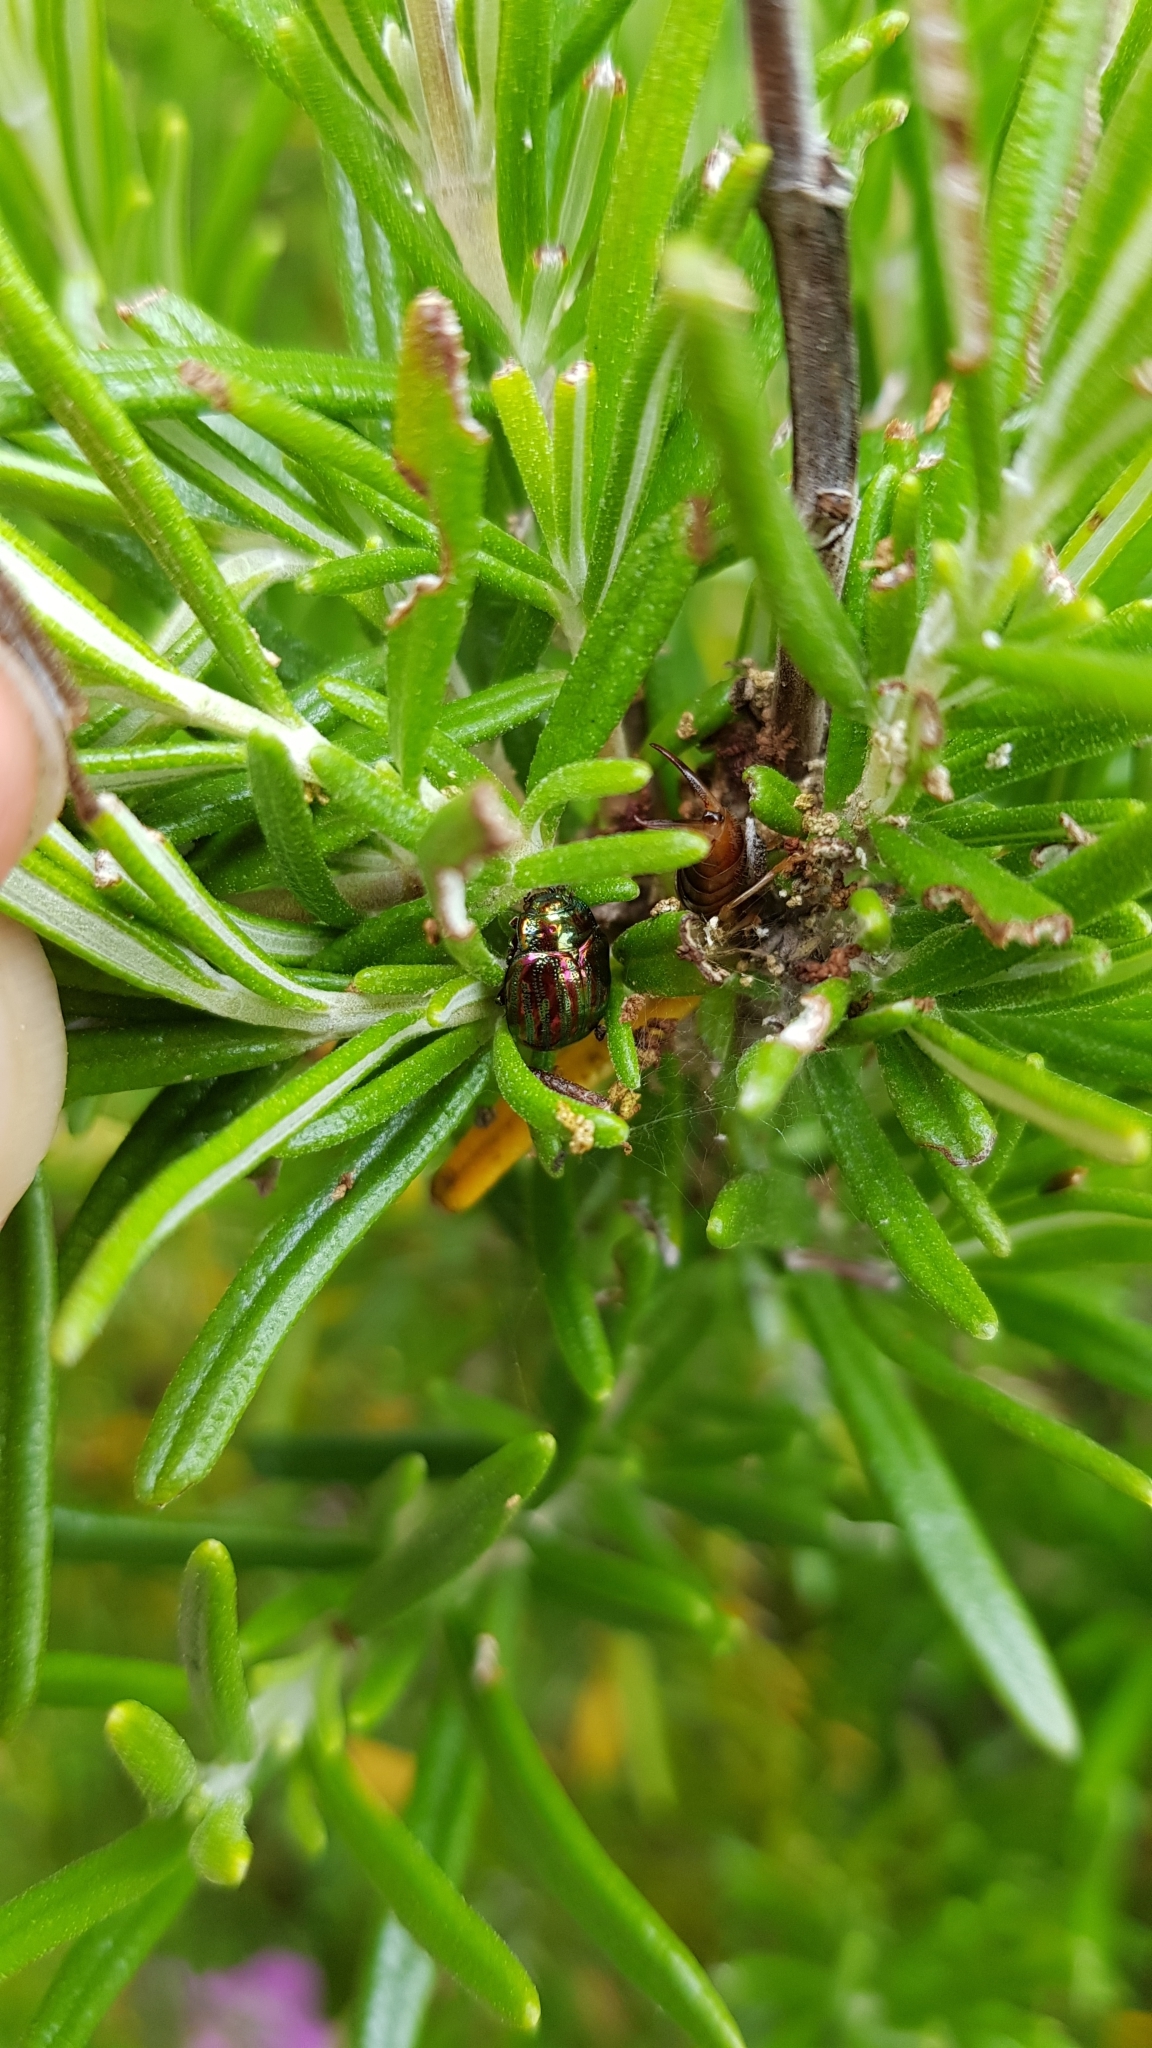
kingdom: Animalia
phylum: Arthropoda
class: Insecta
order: Coleoptera
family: Chrysomelidae
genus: Chrysolina
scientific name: Chrysolina americana
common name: Rosemary beetle
